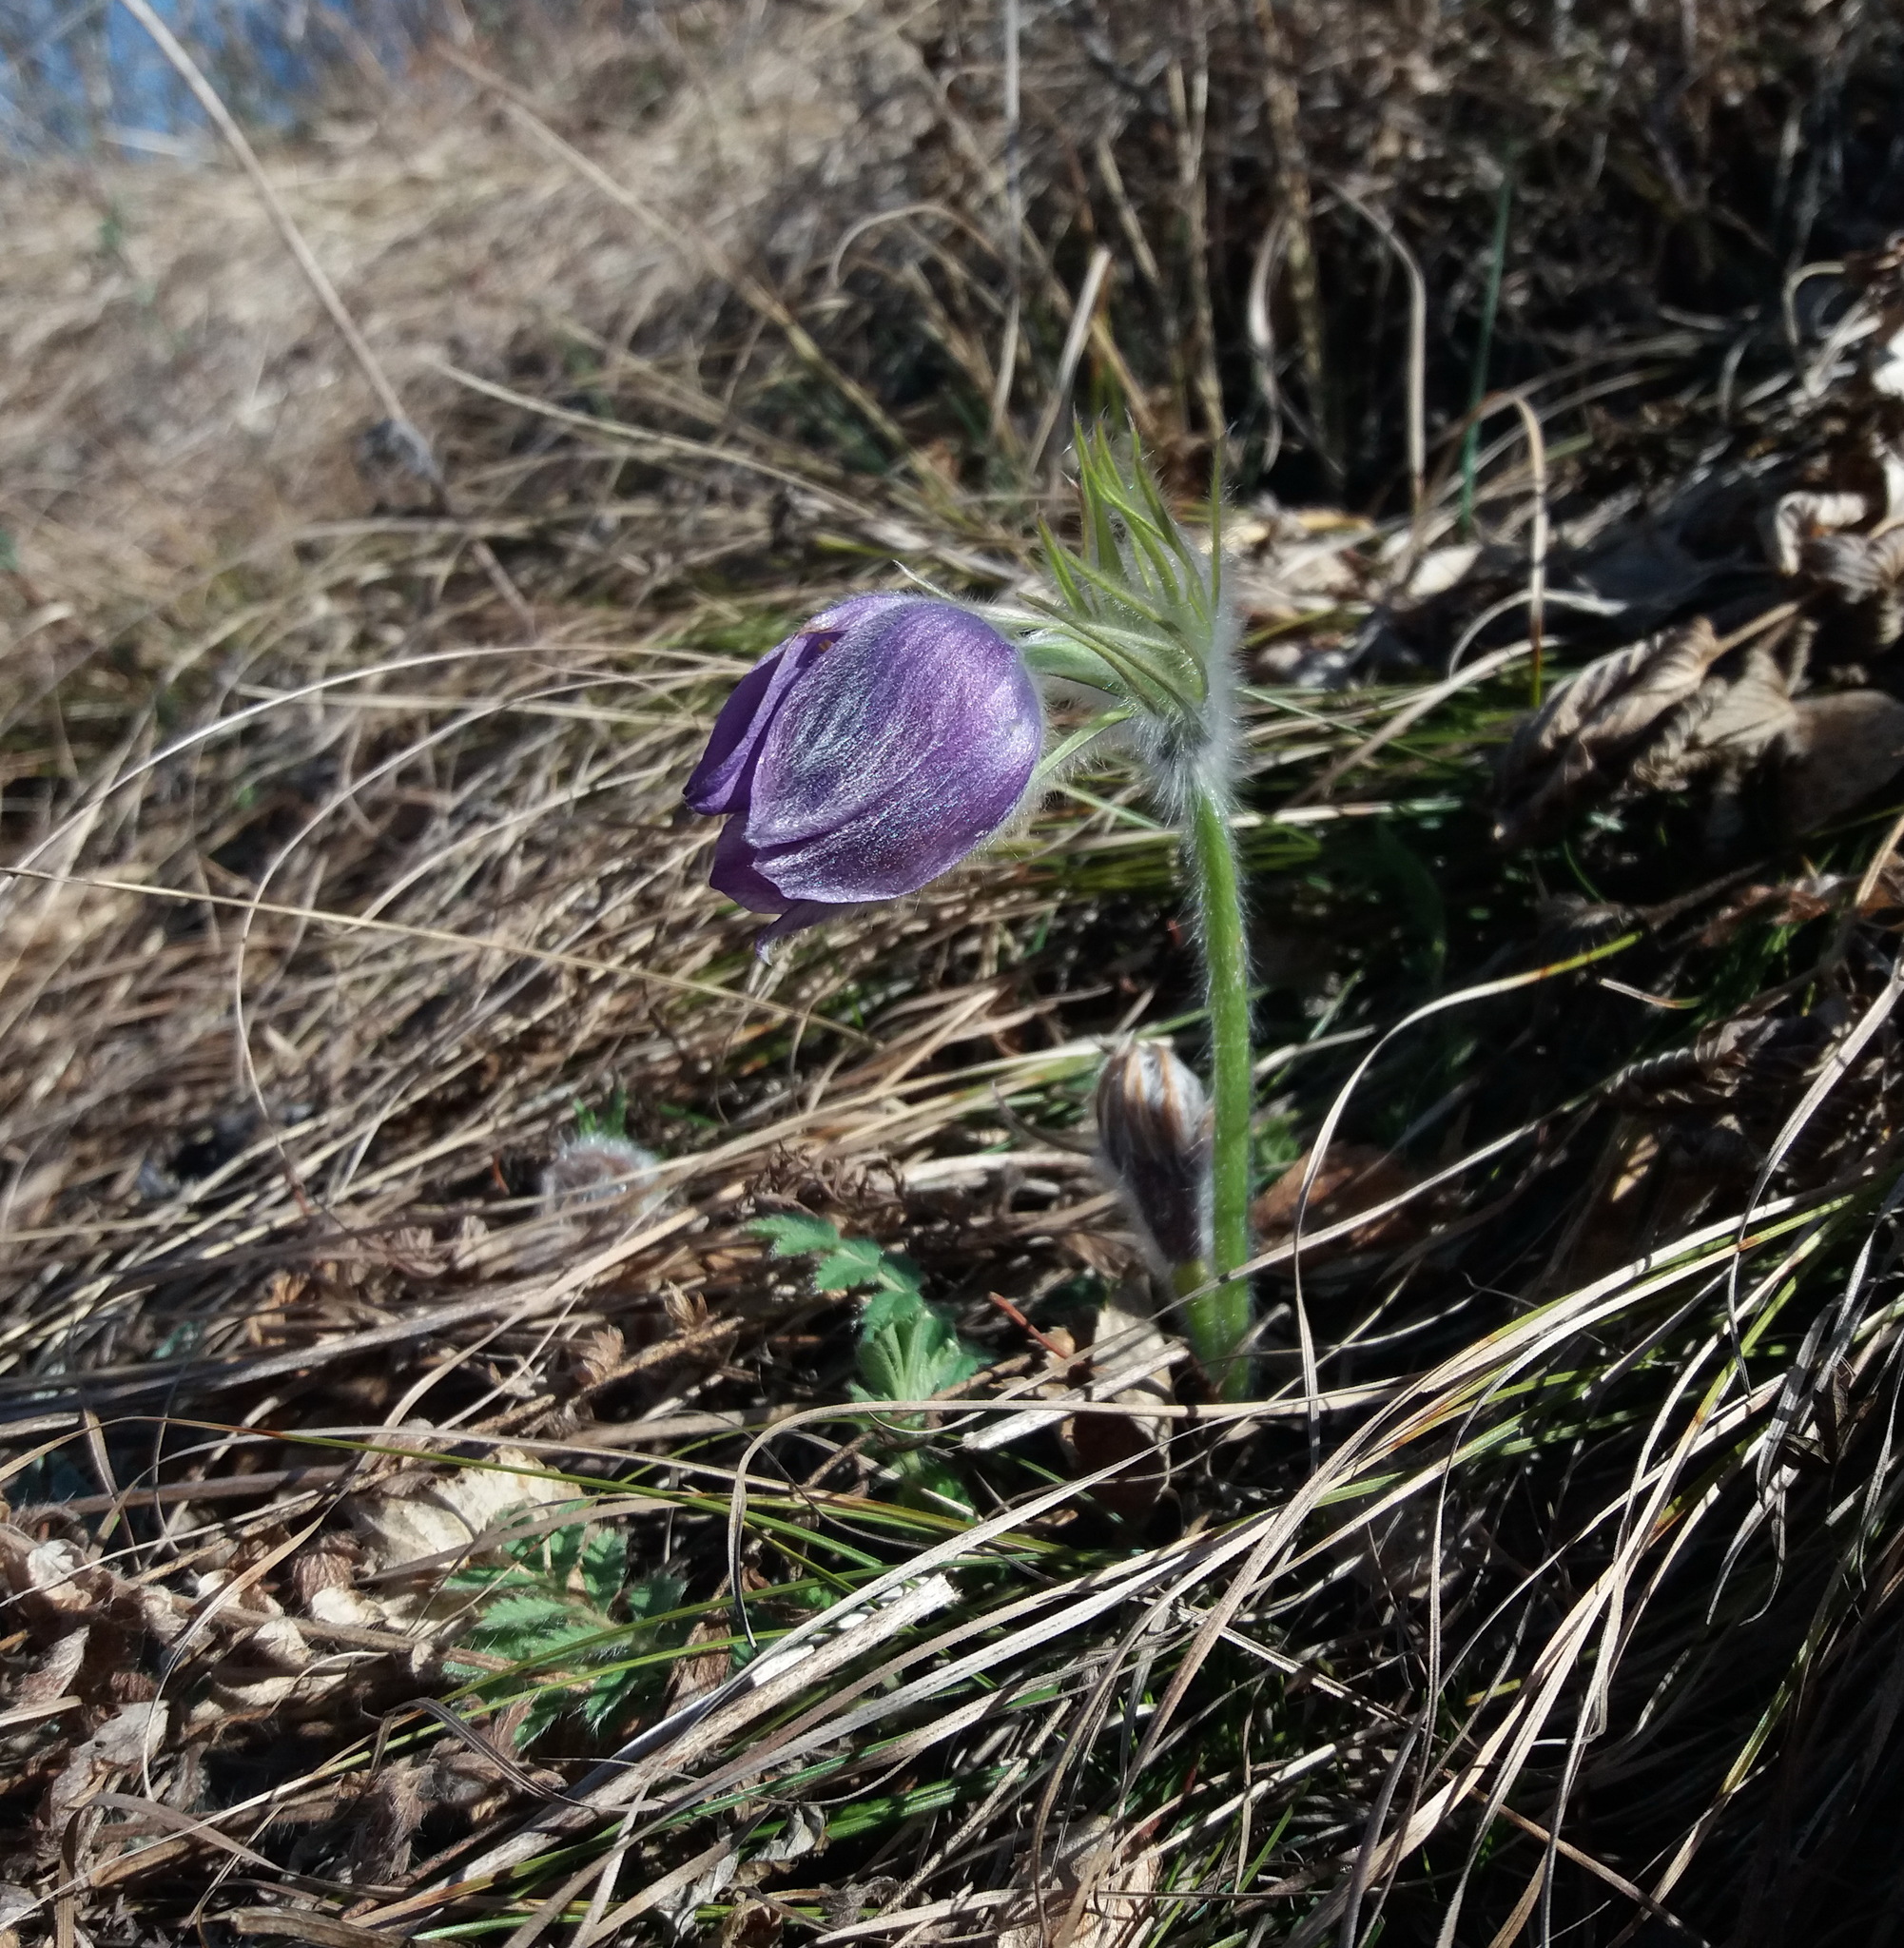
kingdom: Plantae
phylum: Tracheophyta
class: Magnoliopsida
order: Ranunculales
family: Ranunculaceae
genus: Pulsatilla
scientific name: Pulsatilla patens
